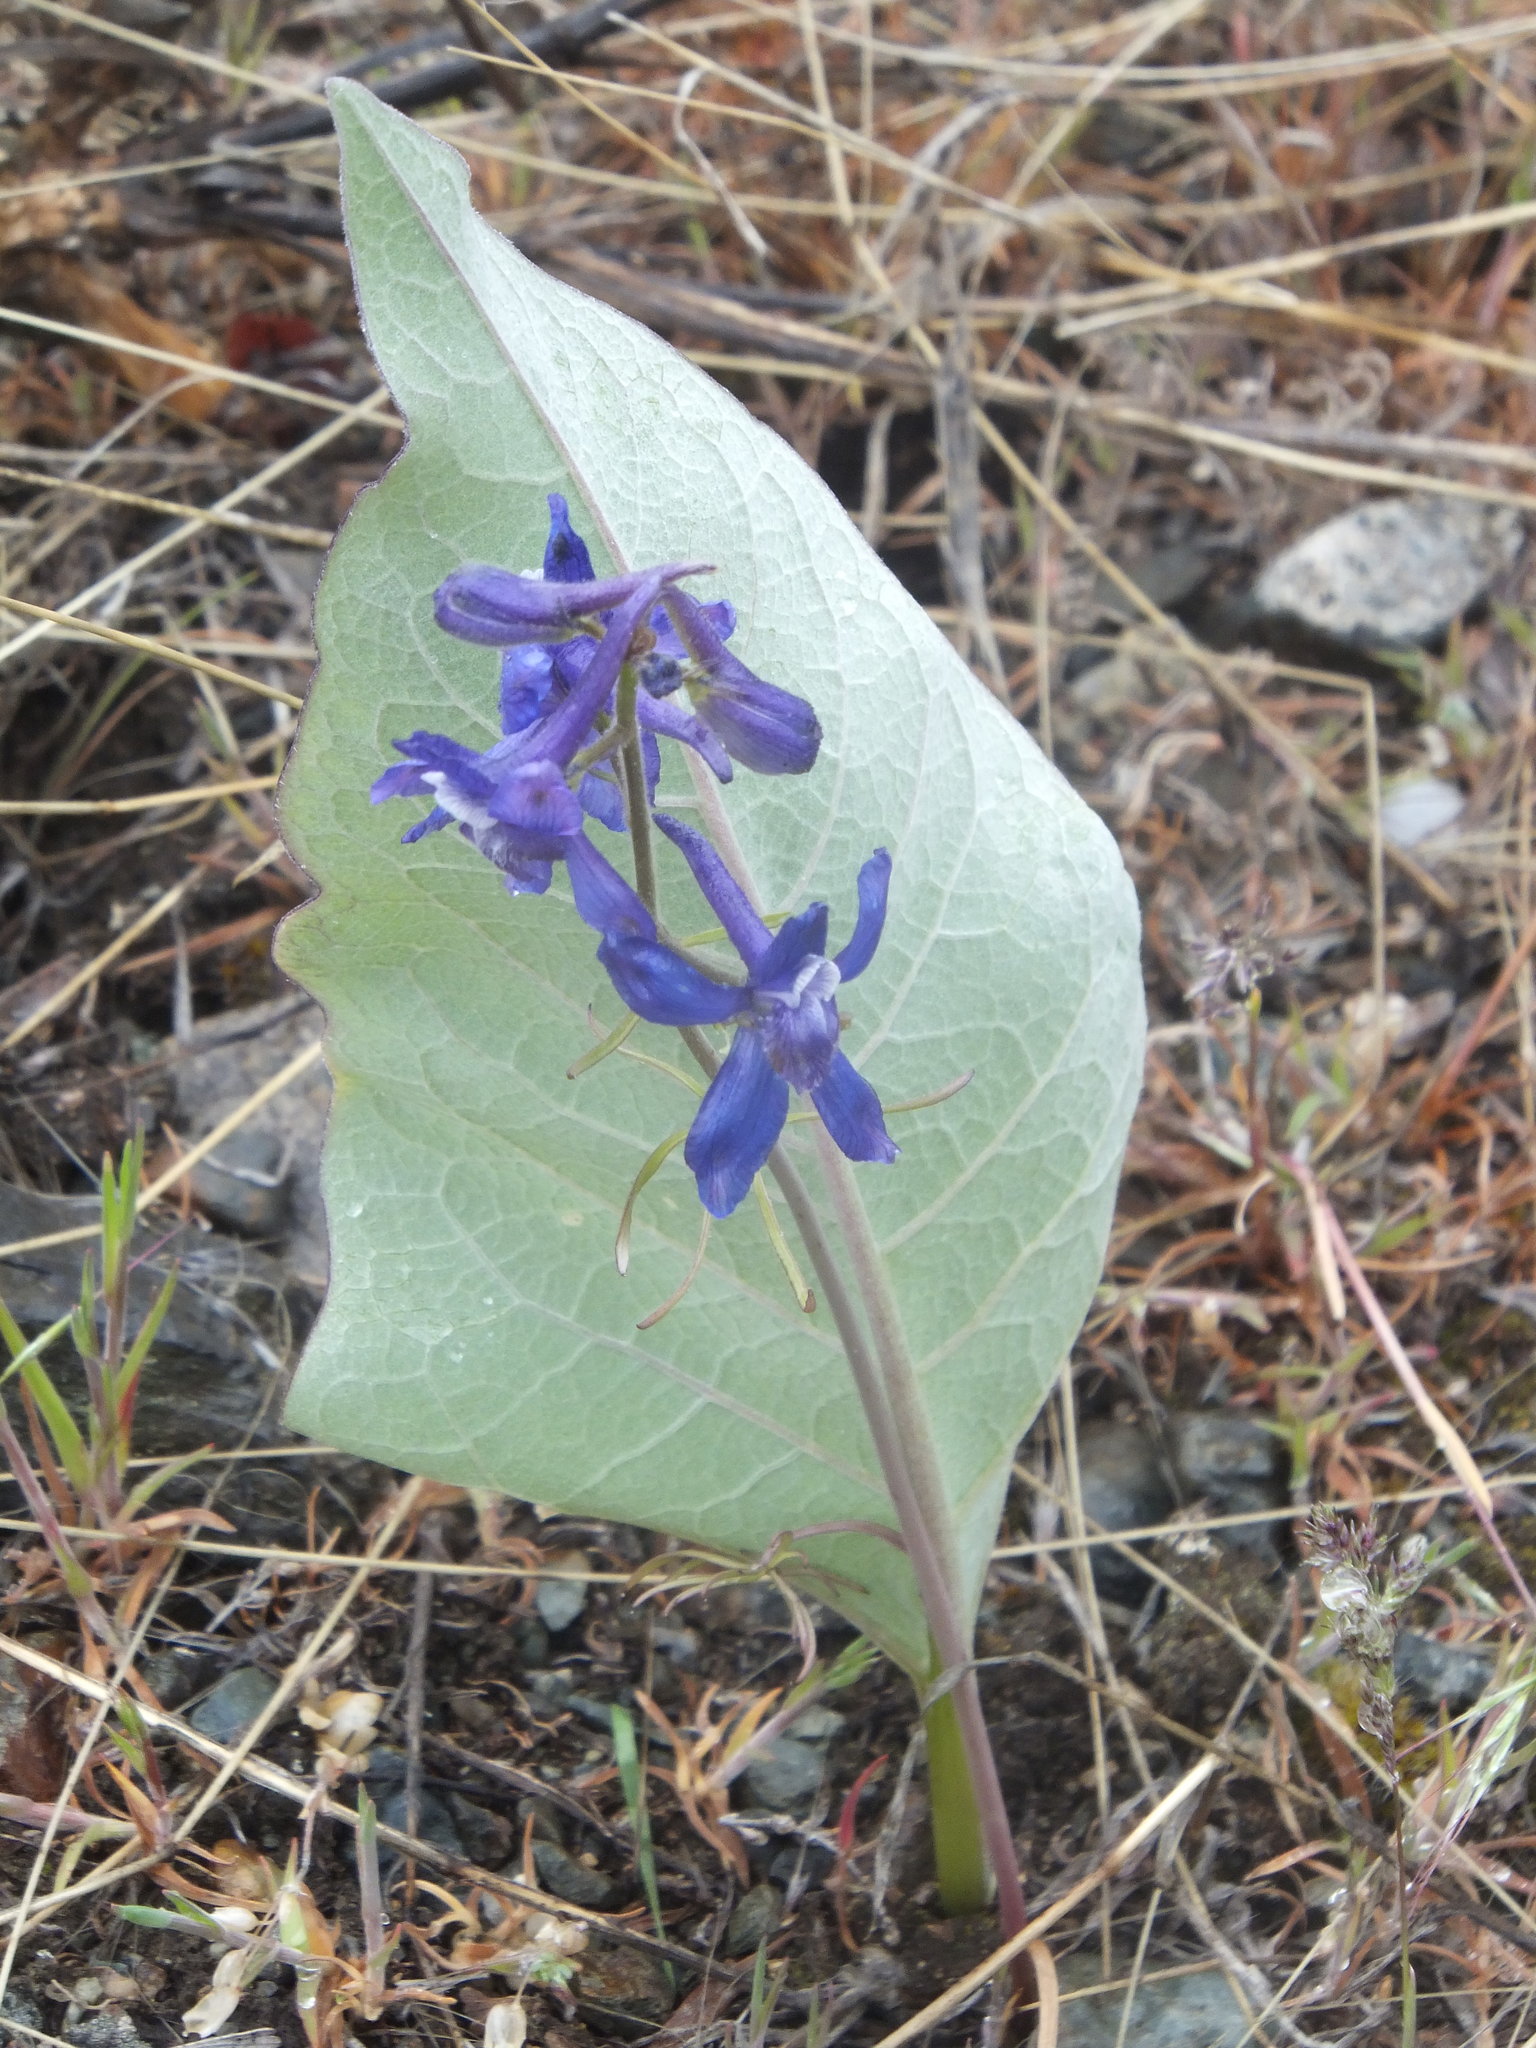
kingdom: Plantae
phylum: Tracheophyta
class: Magnoliopsida
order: Ranunculales
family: Ranunculaceae
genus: Delphinium
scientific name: Delphinium nuttallianum
